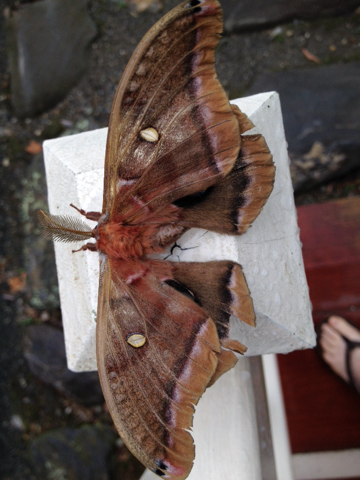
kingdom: Animalia
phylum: Arthropoda
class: Insecta
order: Lepidoptera
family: Saturniidae
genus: Antheraea
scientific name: Antheraea polyphemus
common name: Polyphemus moth
